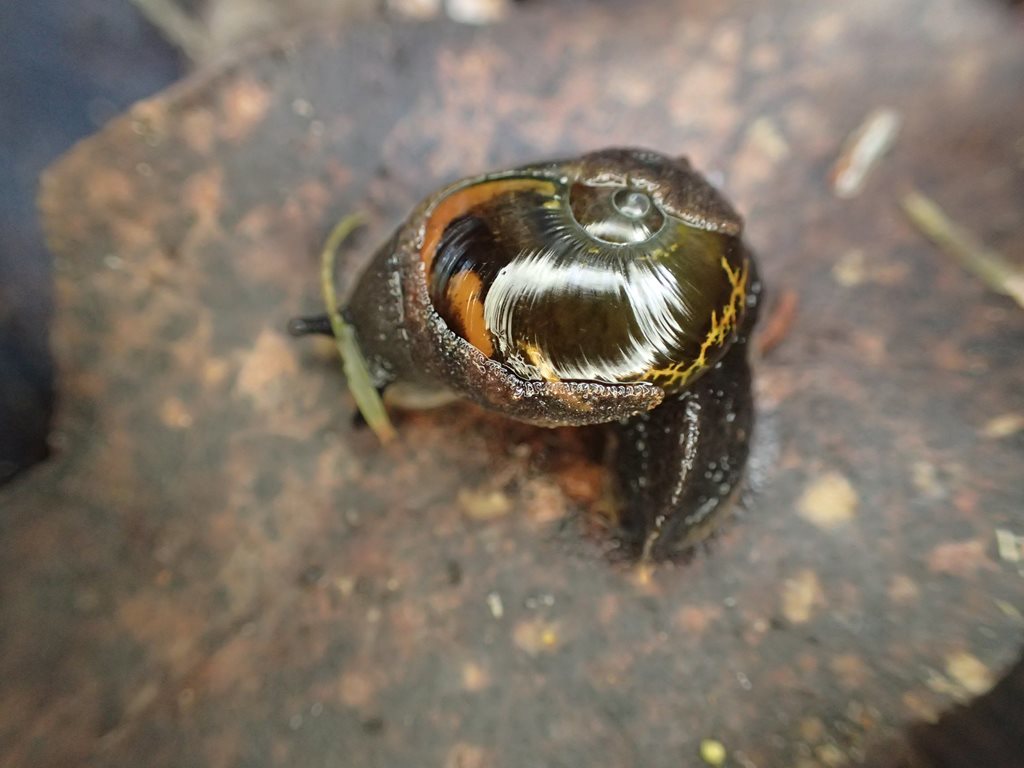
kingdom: Animalia
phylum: Mollusca
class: Gastropoda
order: Stylommatophora
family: Helicarionidae
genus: Helicarion
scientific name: Helicarion cuvieri
